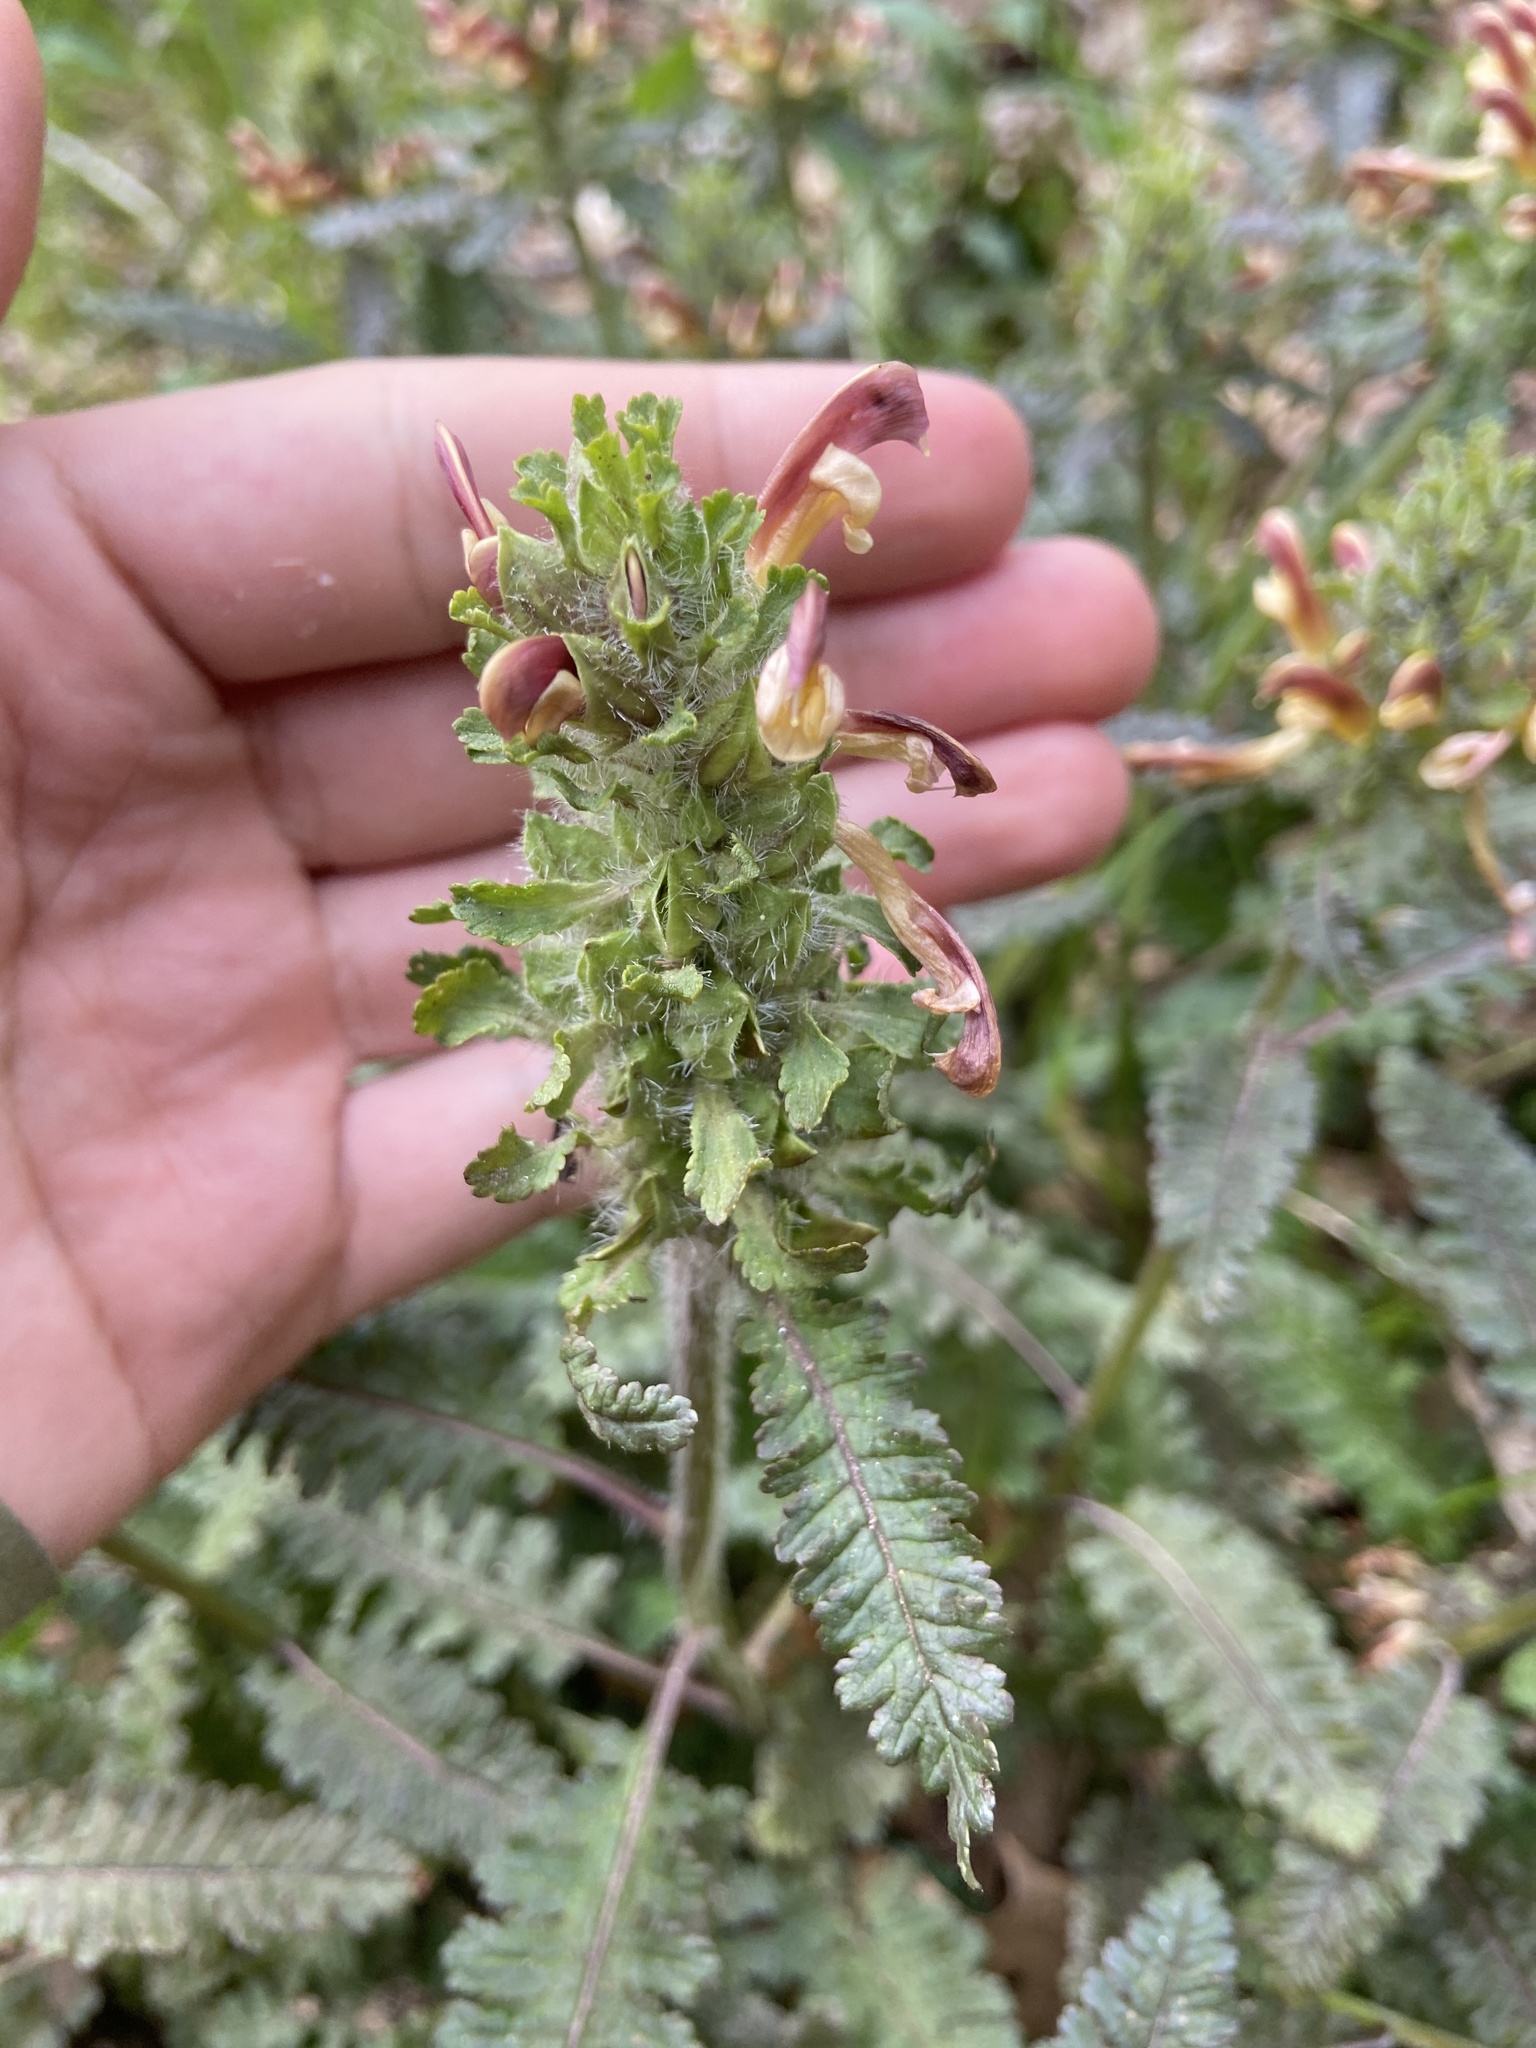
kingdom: Plantae
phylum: Tracheophyta
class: Magnoliopsida
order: Lamiales
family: Orobanchaceae
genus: Pedicularis
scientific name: Pedicularis canadensis
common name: Early lousewort
